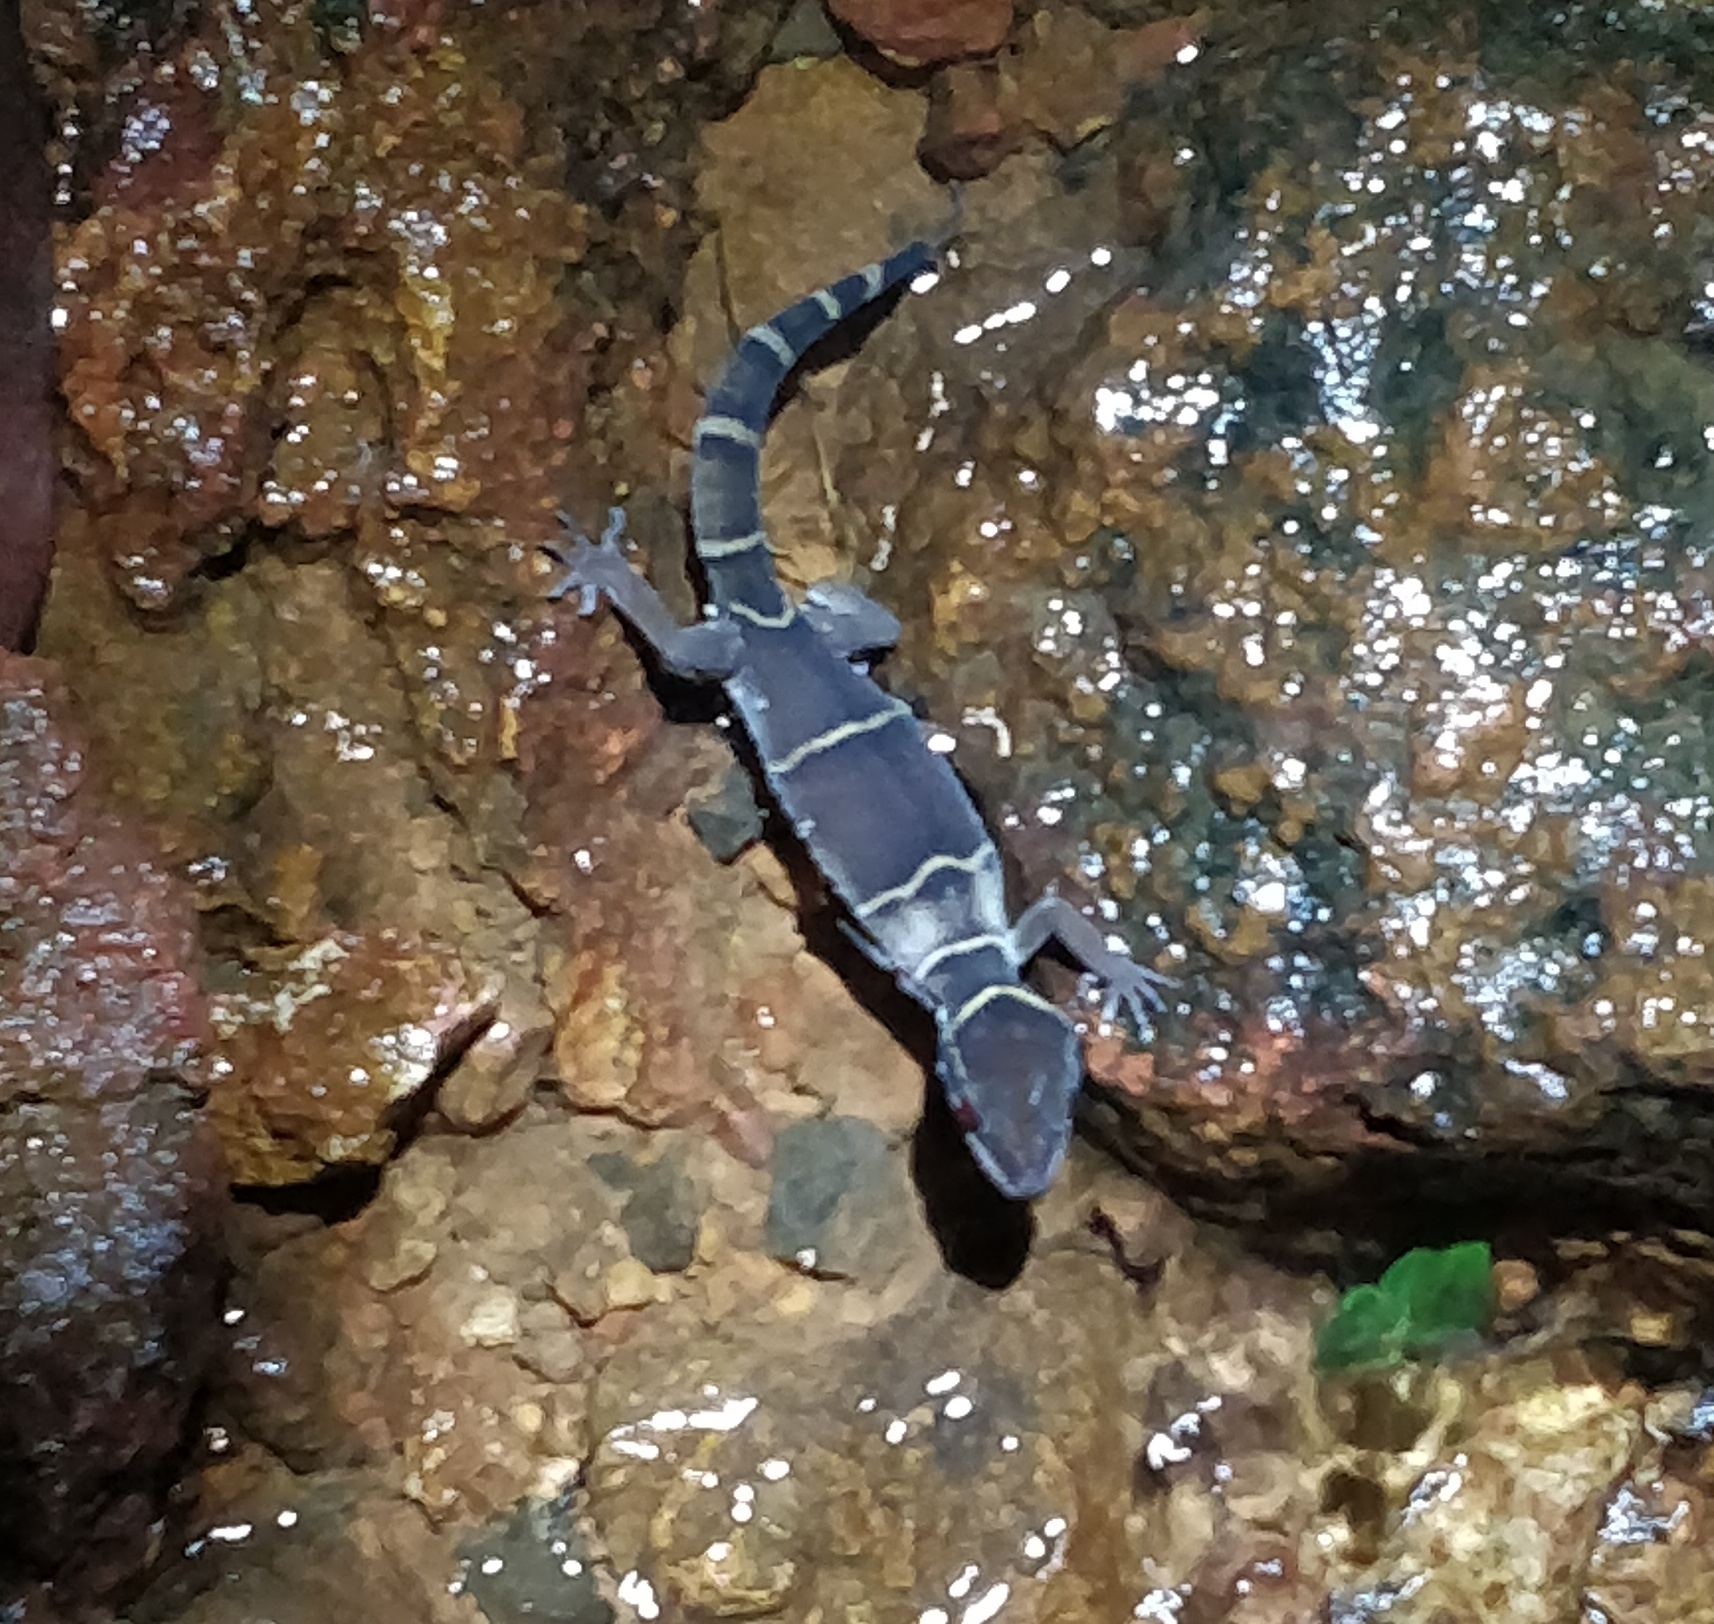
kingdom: Animalia
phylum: Chordata
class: Squamata
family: Gekkonidae
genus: Cyrtodactylus
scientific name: Cyrtodactylus albofasciatus
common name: Boulenger’s indian gecko
